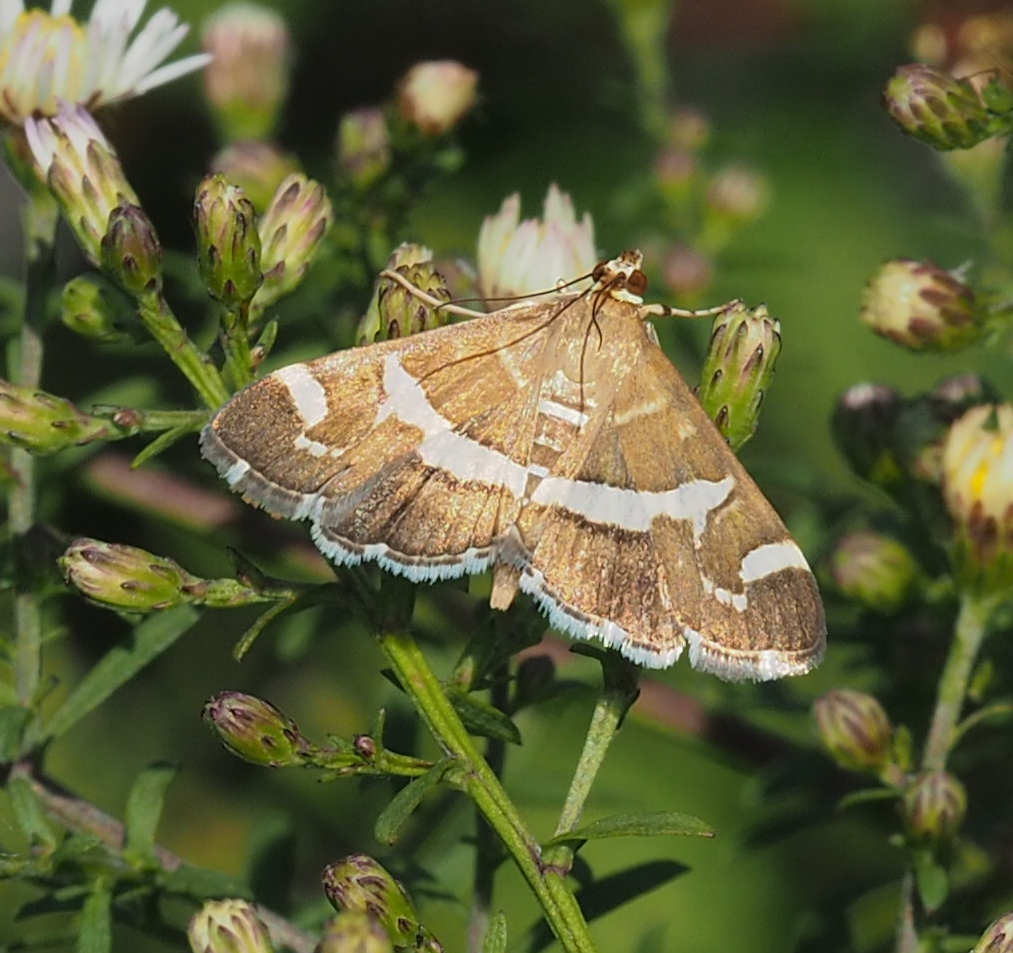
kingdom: Animalia
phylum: Arthropoda
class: Insecta
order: Lepidoptera
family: Crambidae
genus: Spoladea
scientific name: Spoladea recurvalis
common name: Beet webworm moth
